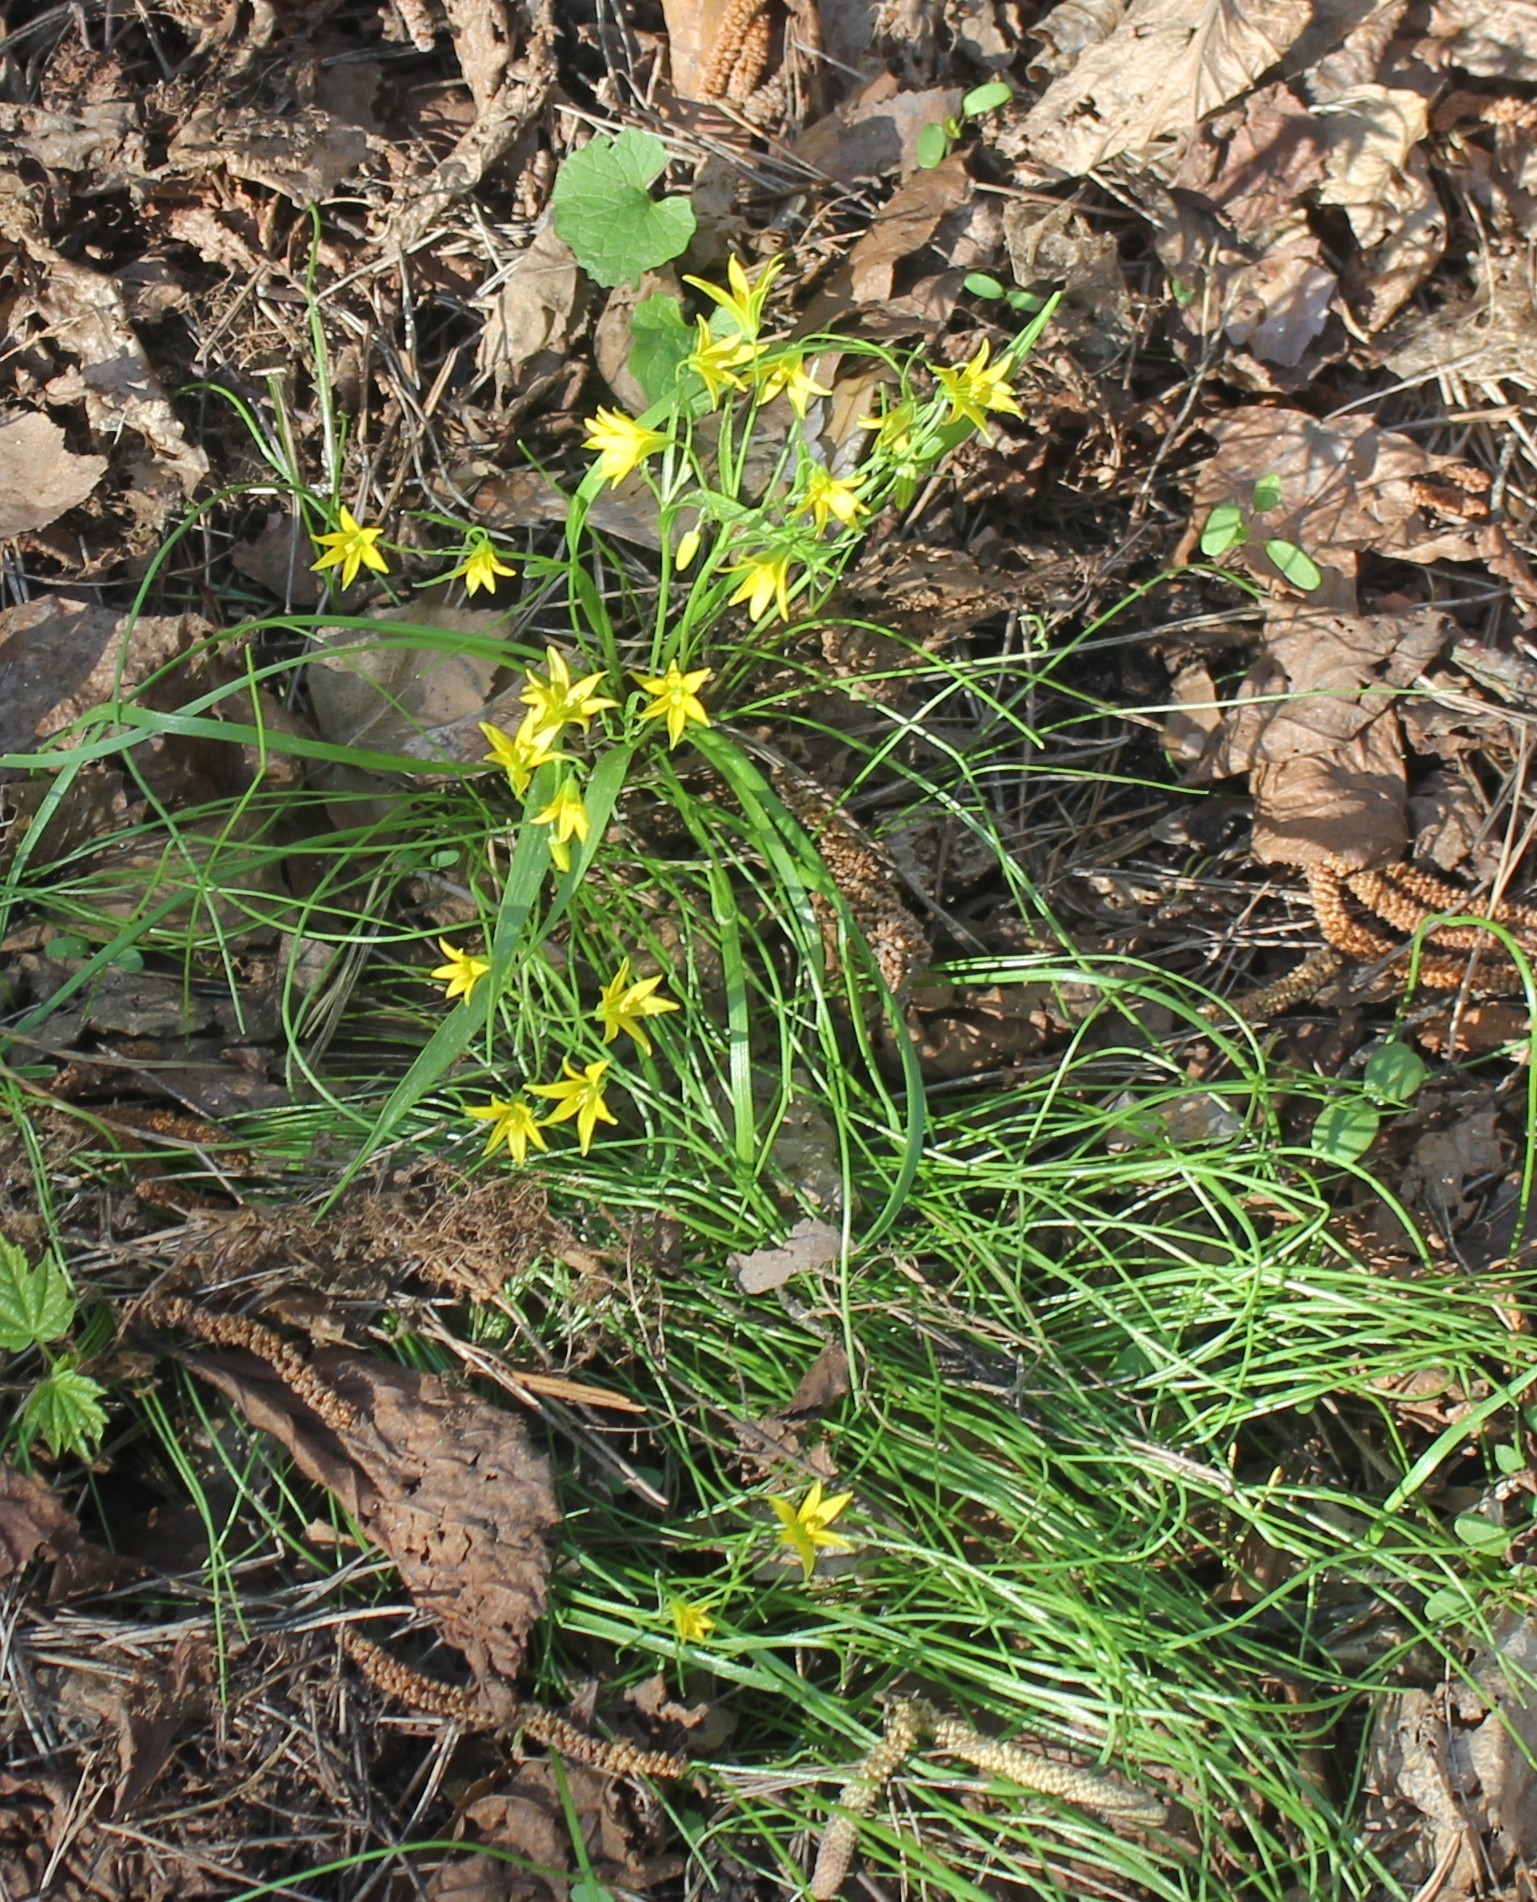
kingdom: Plantae
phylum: Tracheophyta
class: Liliopsida
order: Liliales
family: Liliaceae
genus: Gagea
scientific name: Gagea minima
